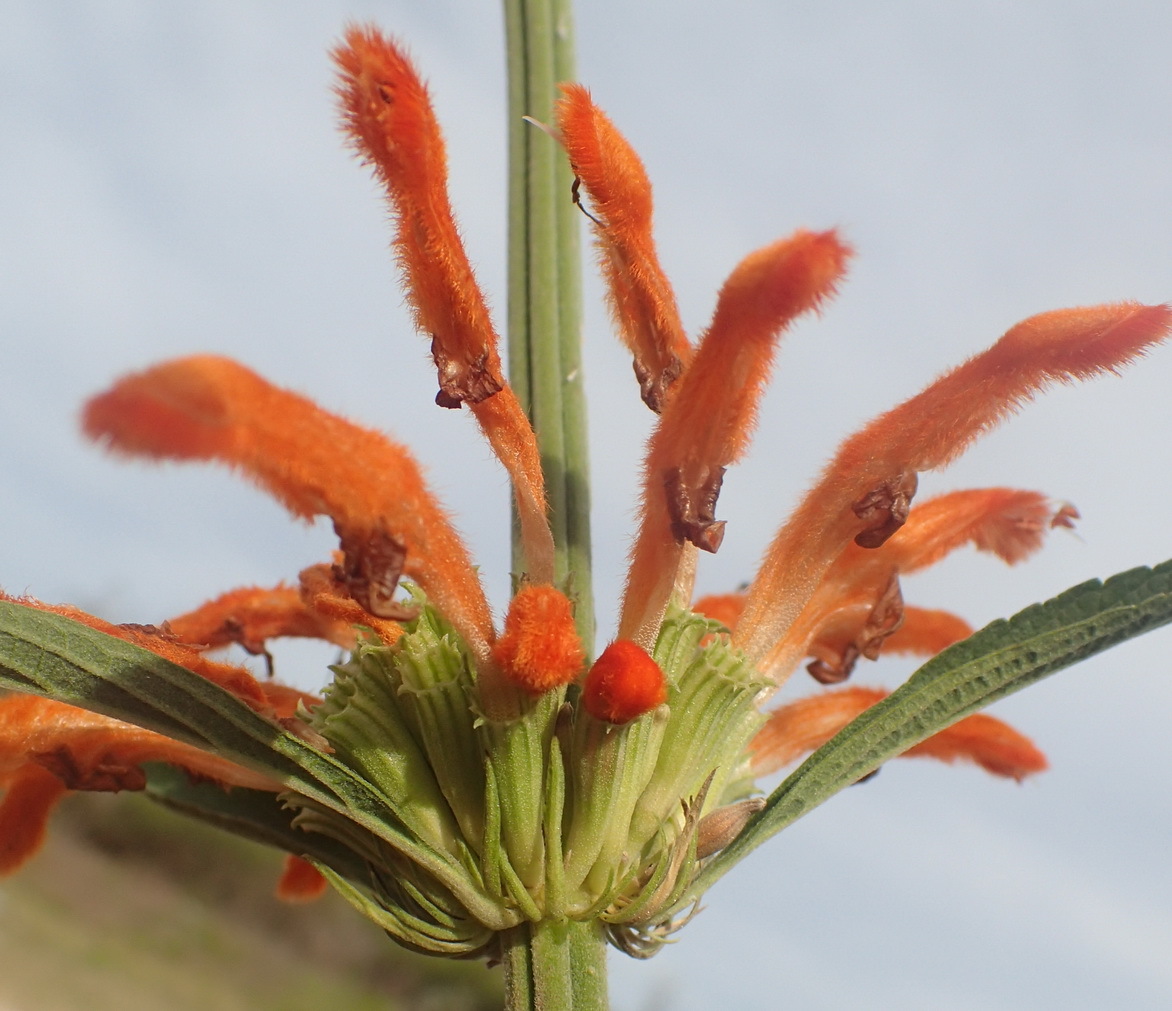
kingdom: Plantae
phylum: Tracheophyta
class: Magnoliopsida
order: Lamiales
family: Lamiaceae
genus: Leonotis
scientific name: Leonotis leonurus
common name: Lion's ear
